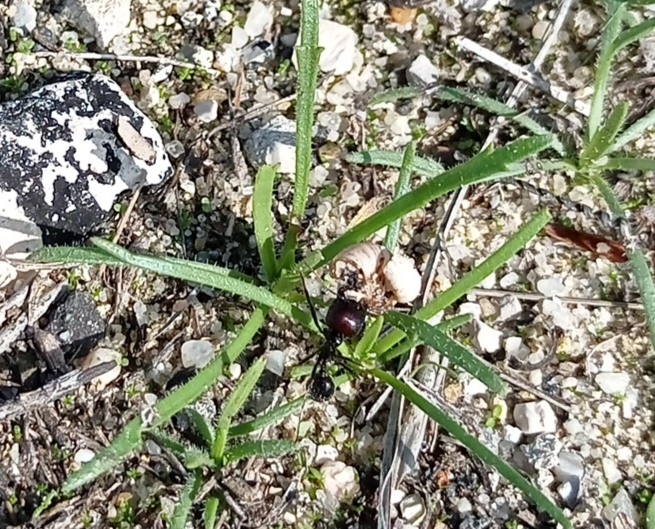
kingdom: Animalia
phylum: Arthropoda
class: Insecta
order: Hymenoptera
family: Formicidae
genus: Messor
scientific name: Messor barbarus
